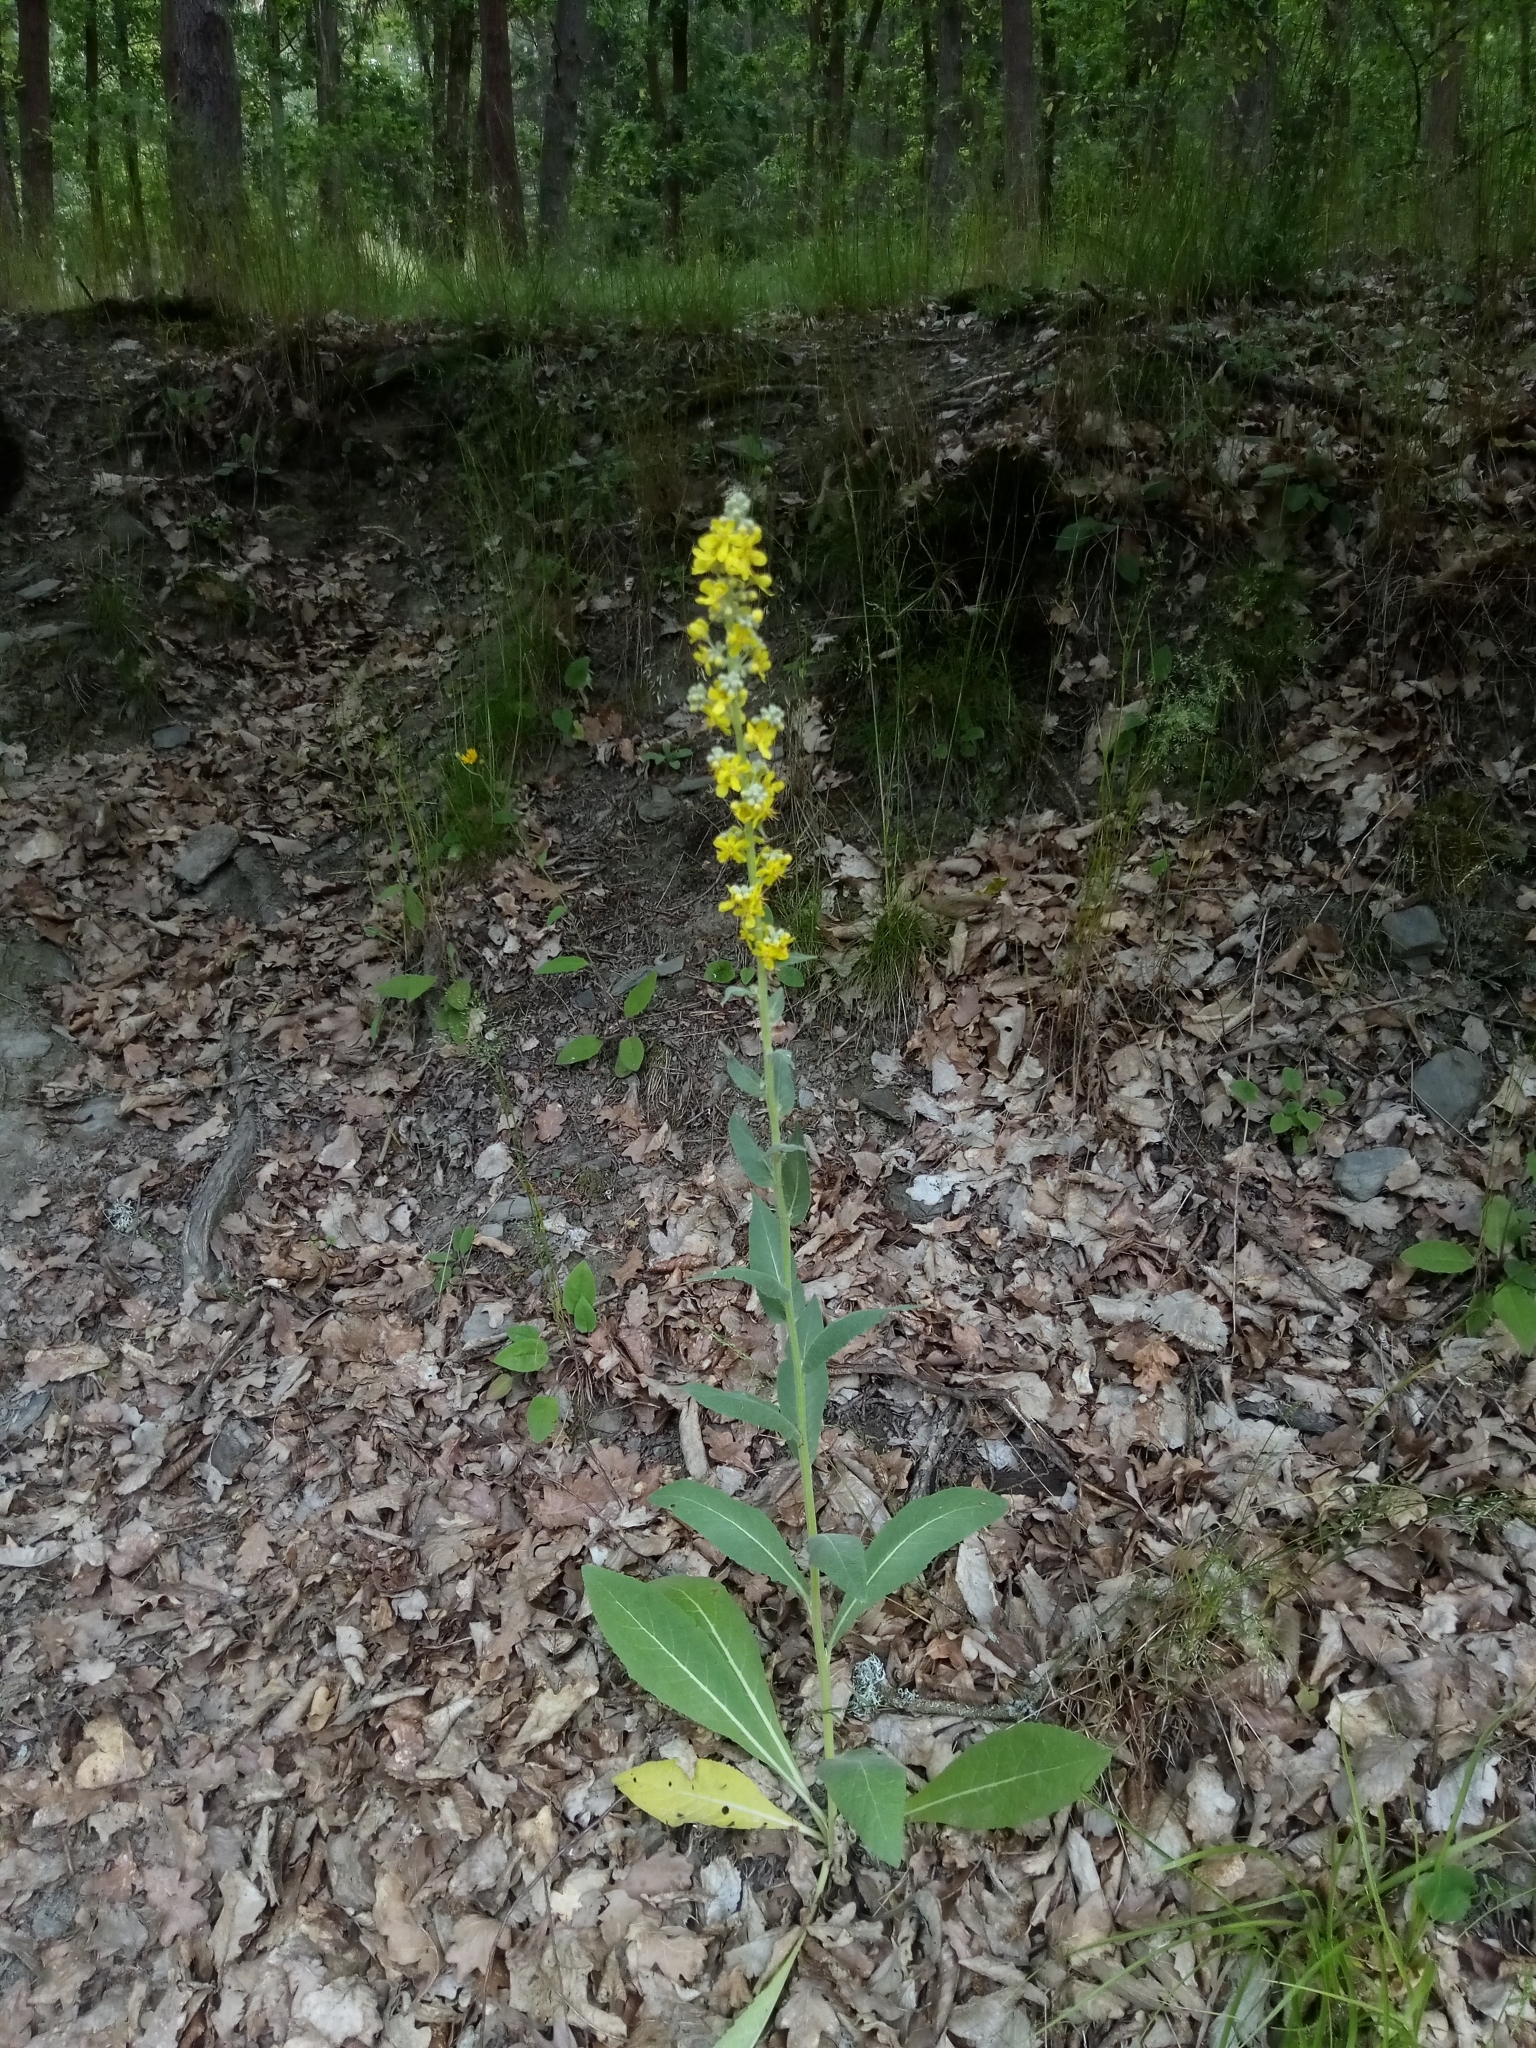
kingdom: Plantae
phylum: Tracheophyta
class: Magnoliopsida
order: Lamiales
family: Scrophulariaceae
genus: Verbascum
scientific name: Verbascum lychnitis
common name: White mullein
